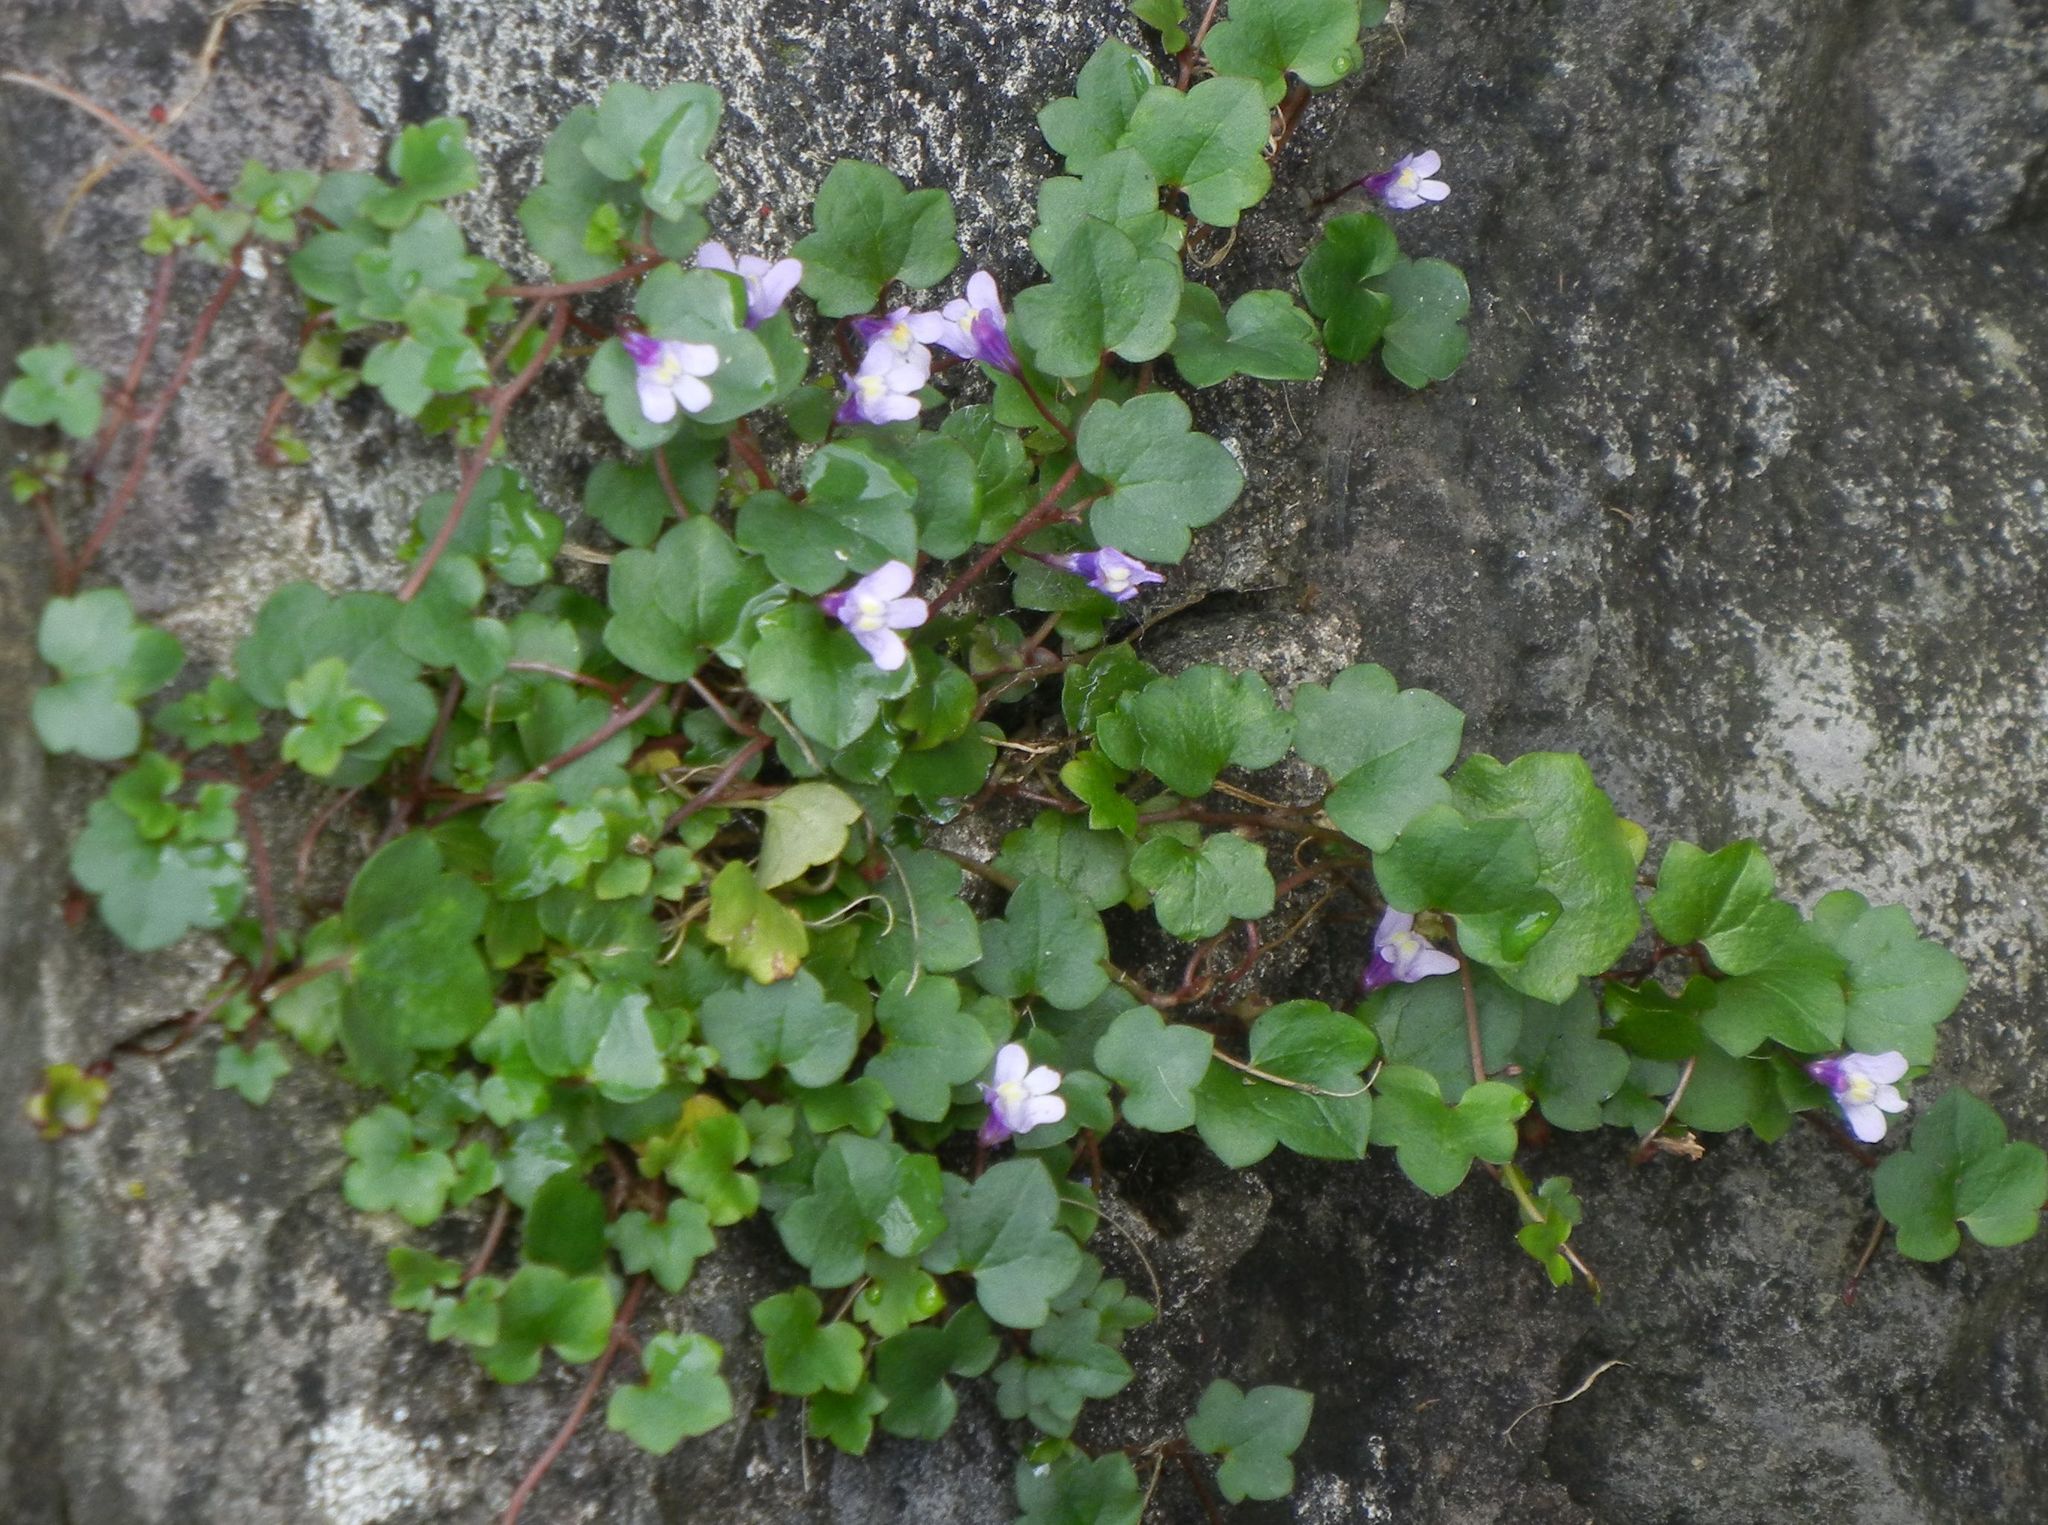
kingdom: Plantae
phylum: Tracheophyta
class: Magnoliopsida
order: Lamiales
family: Plantaginaceae
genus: Cymbalaria
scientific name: Cymbalaria muralis
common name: Ivy-leaved toadflax
